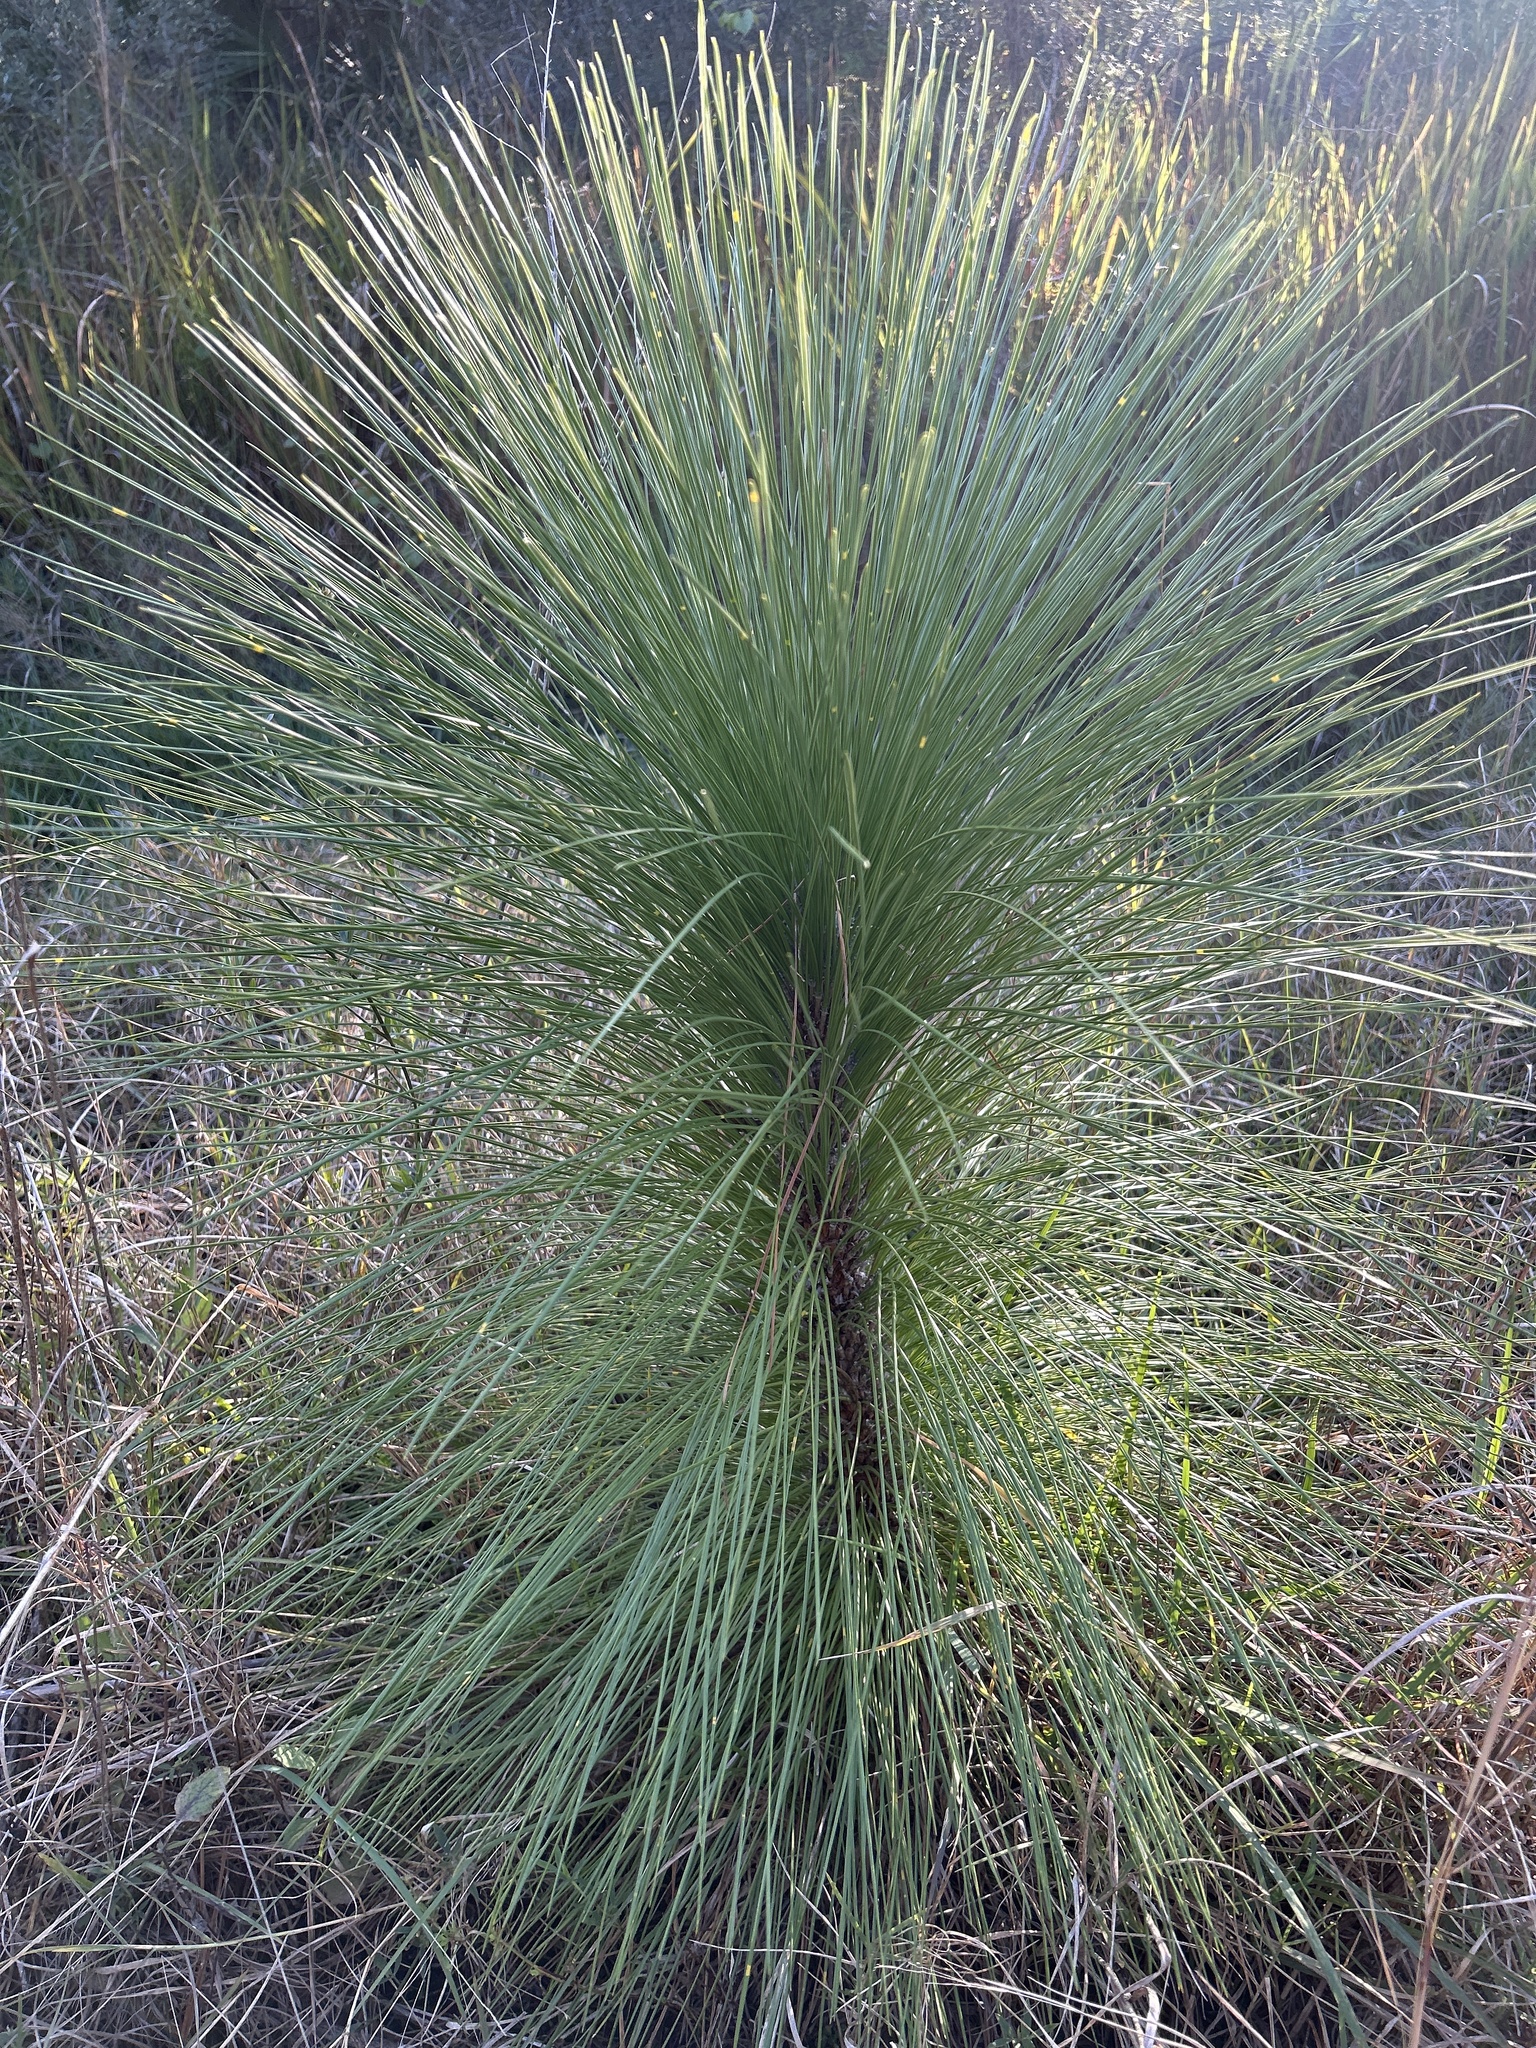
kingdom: Plantae
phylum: Tracheophyta
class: Pinopsida
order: Pinales
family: Pinaceae
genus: Pinus
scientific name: Pinus palustris
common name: Longleaf pine
